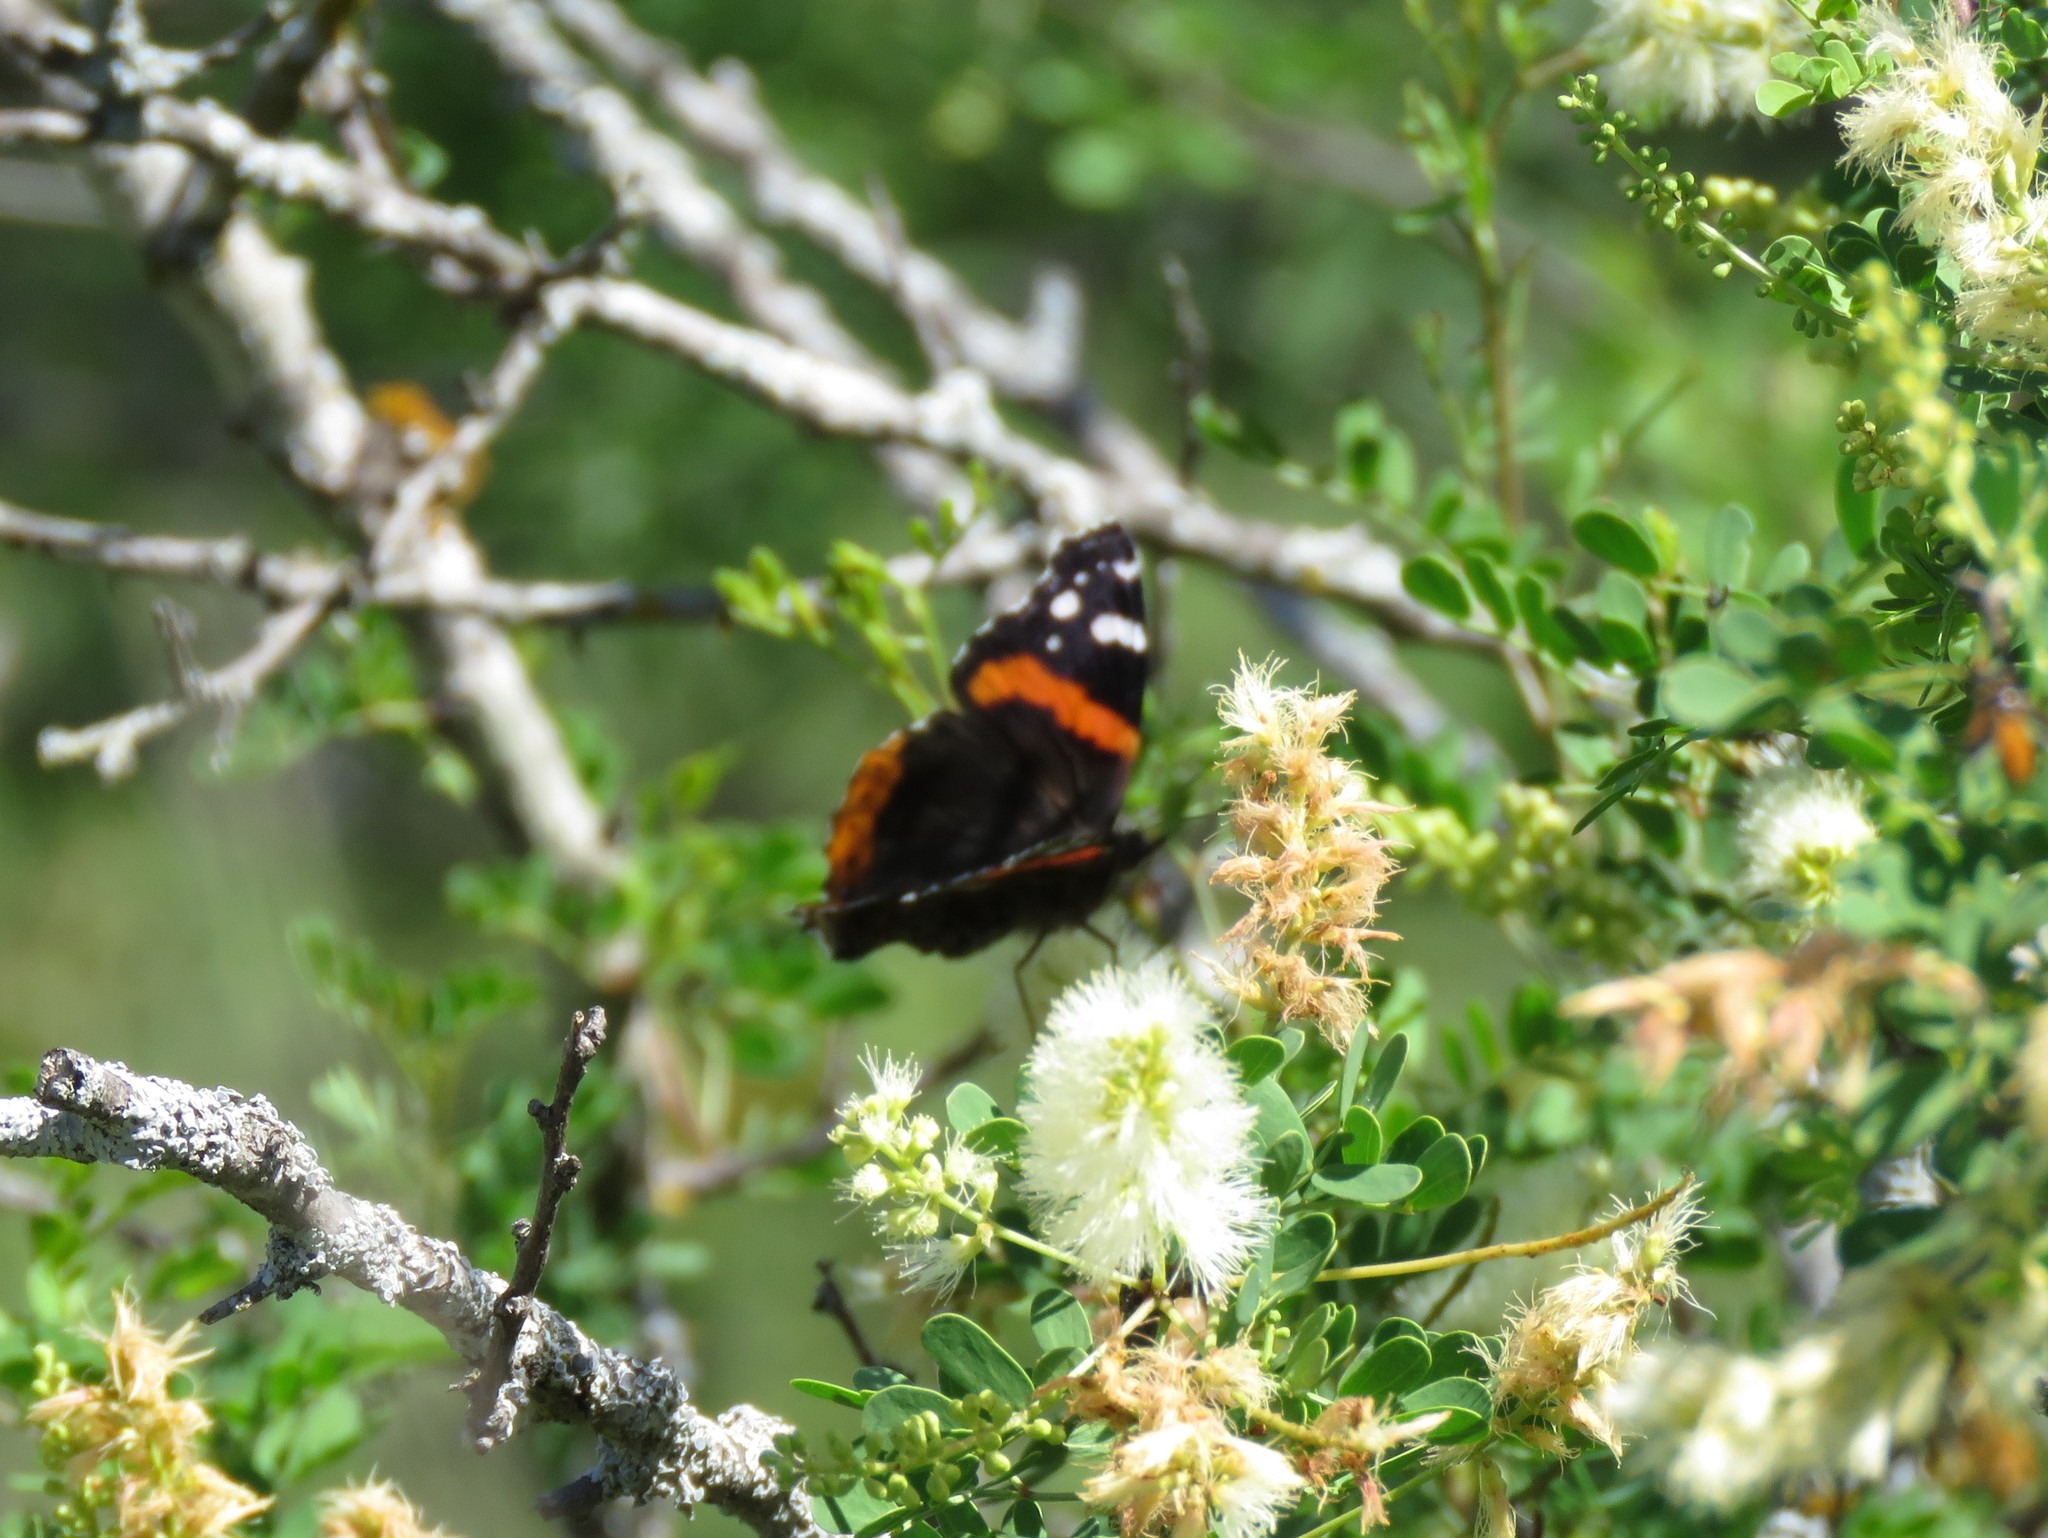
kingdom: Animalia
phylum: Arthropoda
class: Insecta
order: Lepidoptera
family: Nymphalidae
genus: Vanessa
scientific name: Vanessa atalanta
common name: Red admiral
